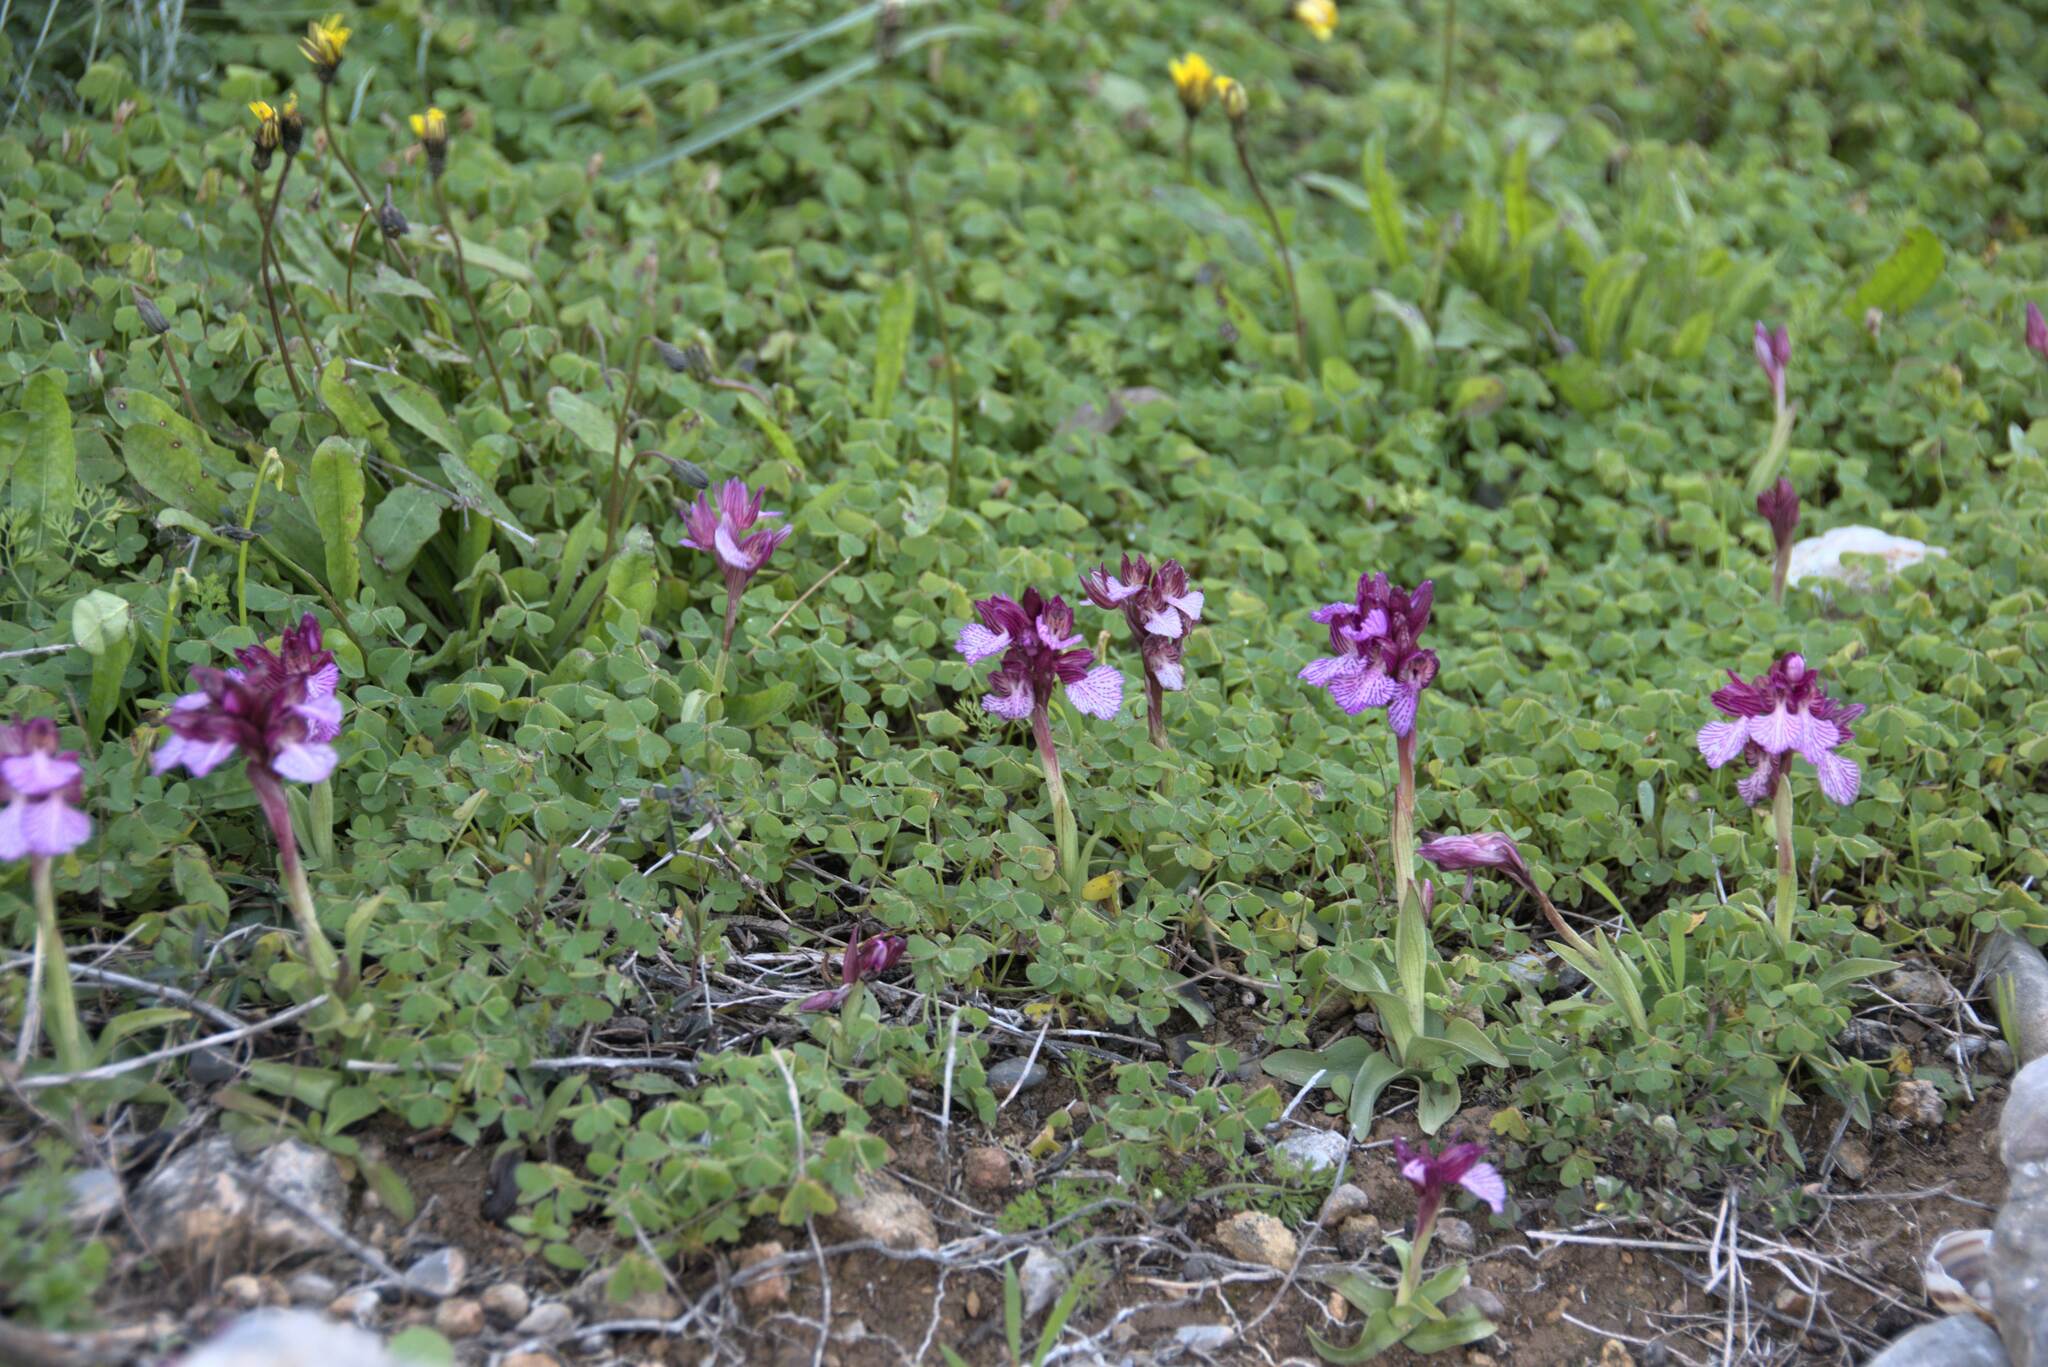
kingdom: Plantae
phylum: Tracheophyta
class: Liliopsida
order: Asparagales
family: Orchidaceae
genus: Anacamptis
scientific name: Anacamptis papilionacea
